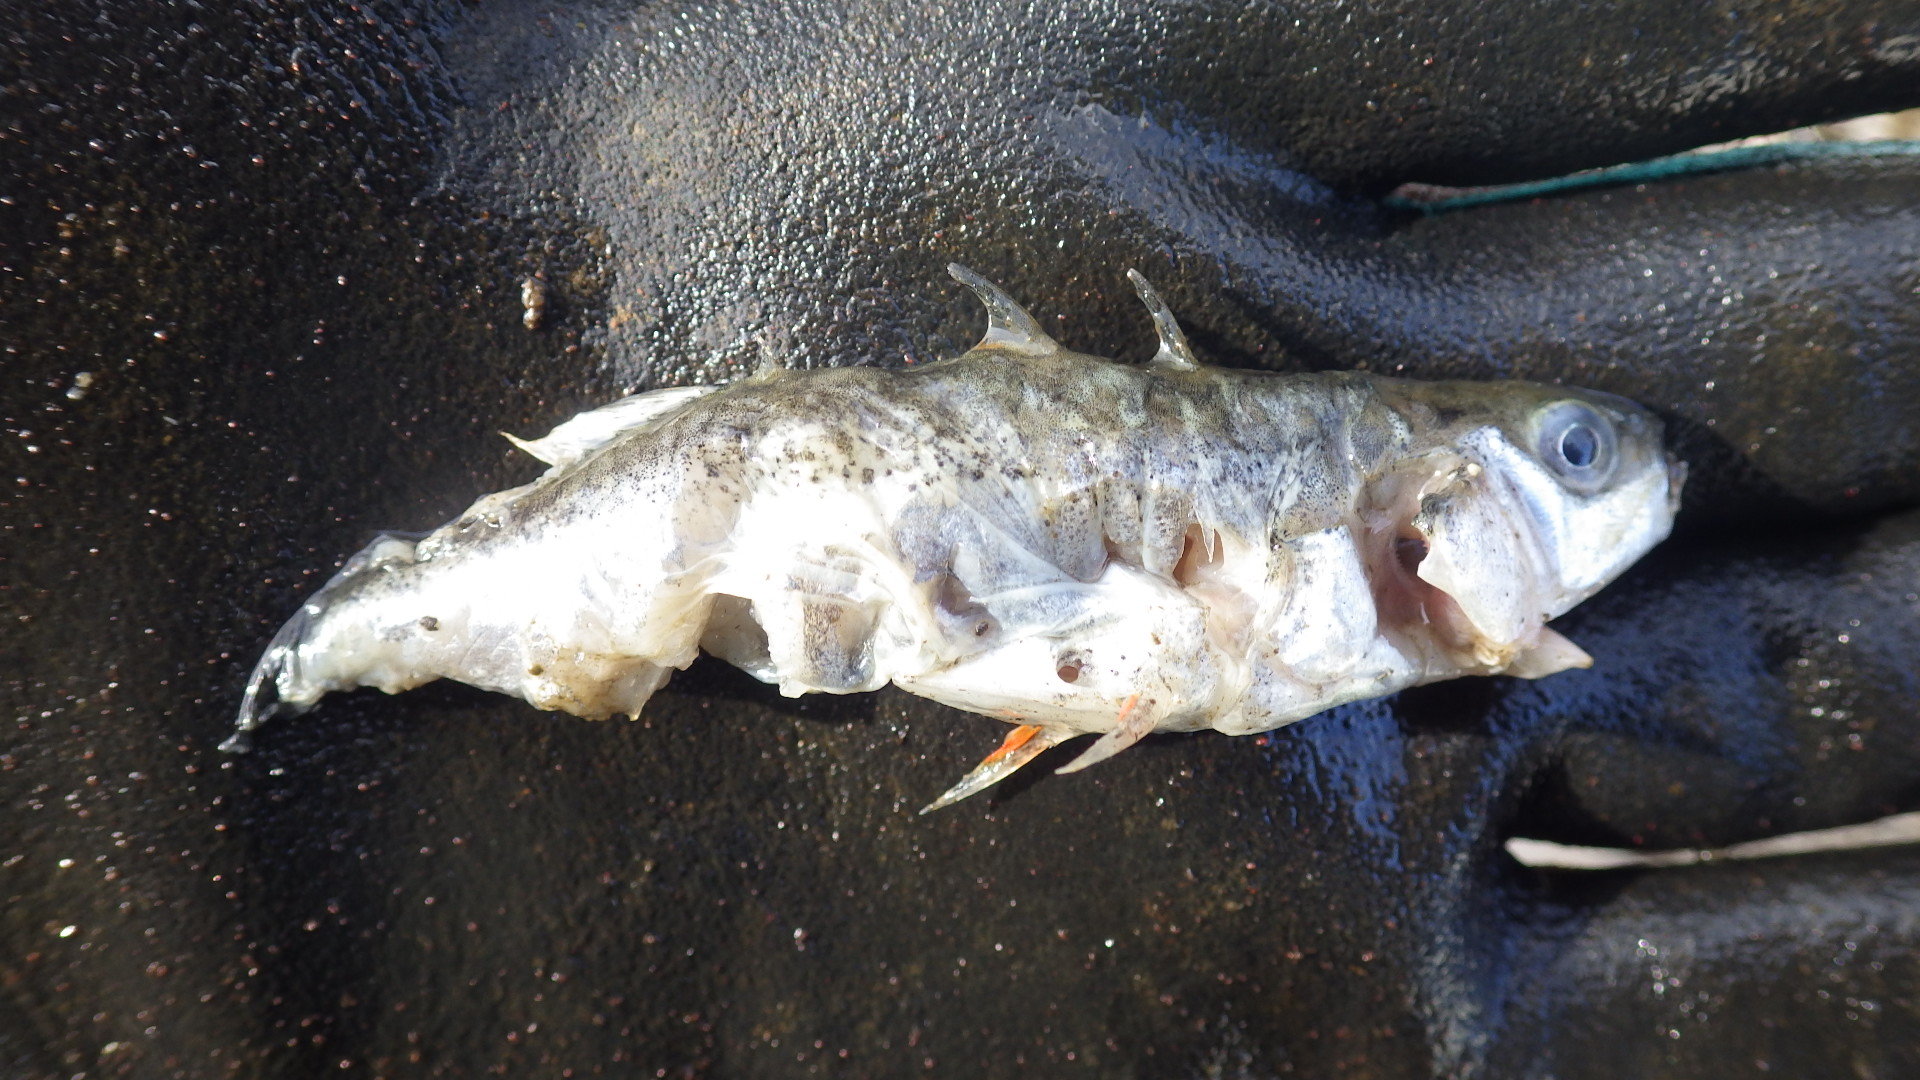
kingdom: Animalia
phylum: Chordata
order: Gasterosteiformes
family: Gasterosteidae
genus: Gasterosteus
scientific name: Gasterosteus aculeatus
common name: Three-spined stickleback
